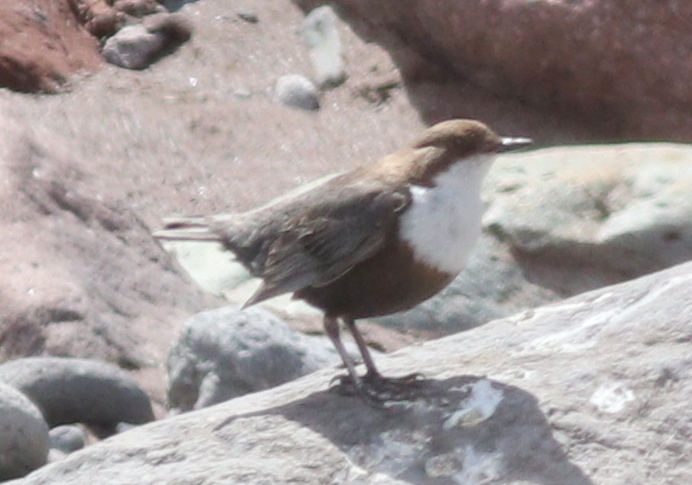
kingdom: Animalia
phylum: Chordata
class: Aves
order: Passeriformes
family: Cinclidae
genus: Cinclus
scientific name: Cinclus cinclus
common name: White-throated dipper
